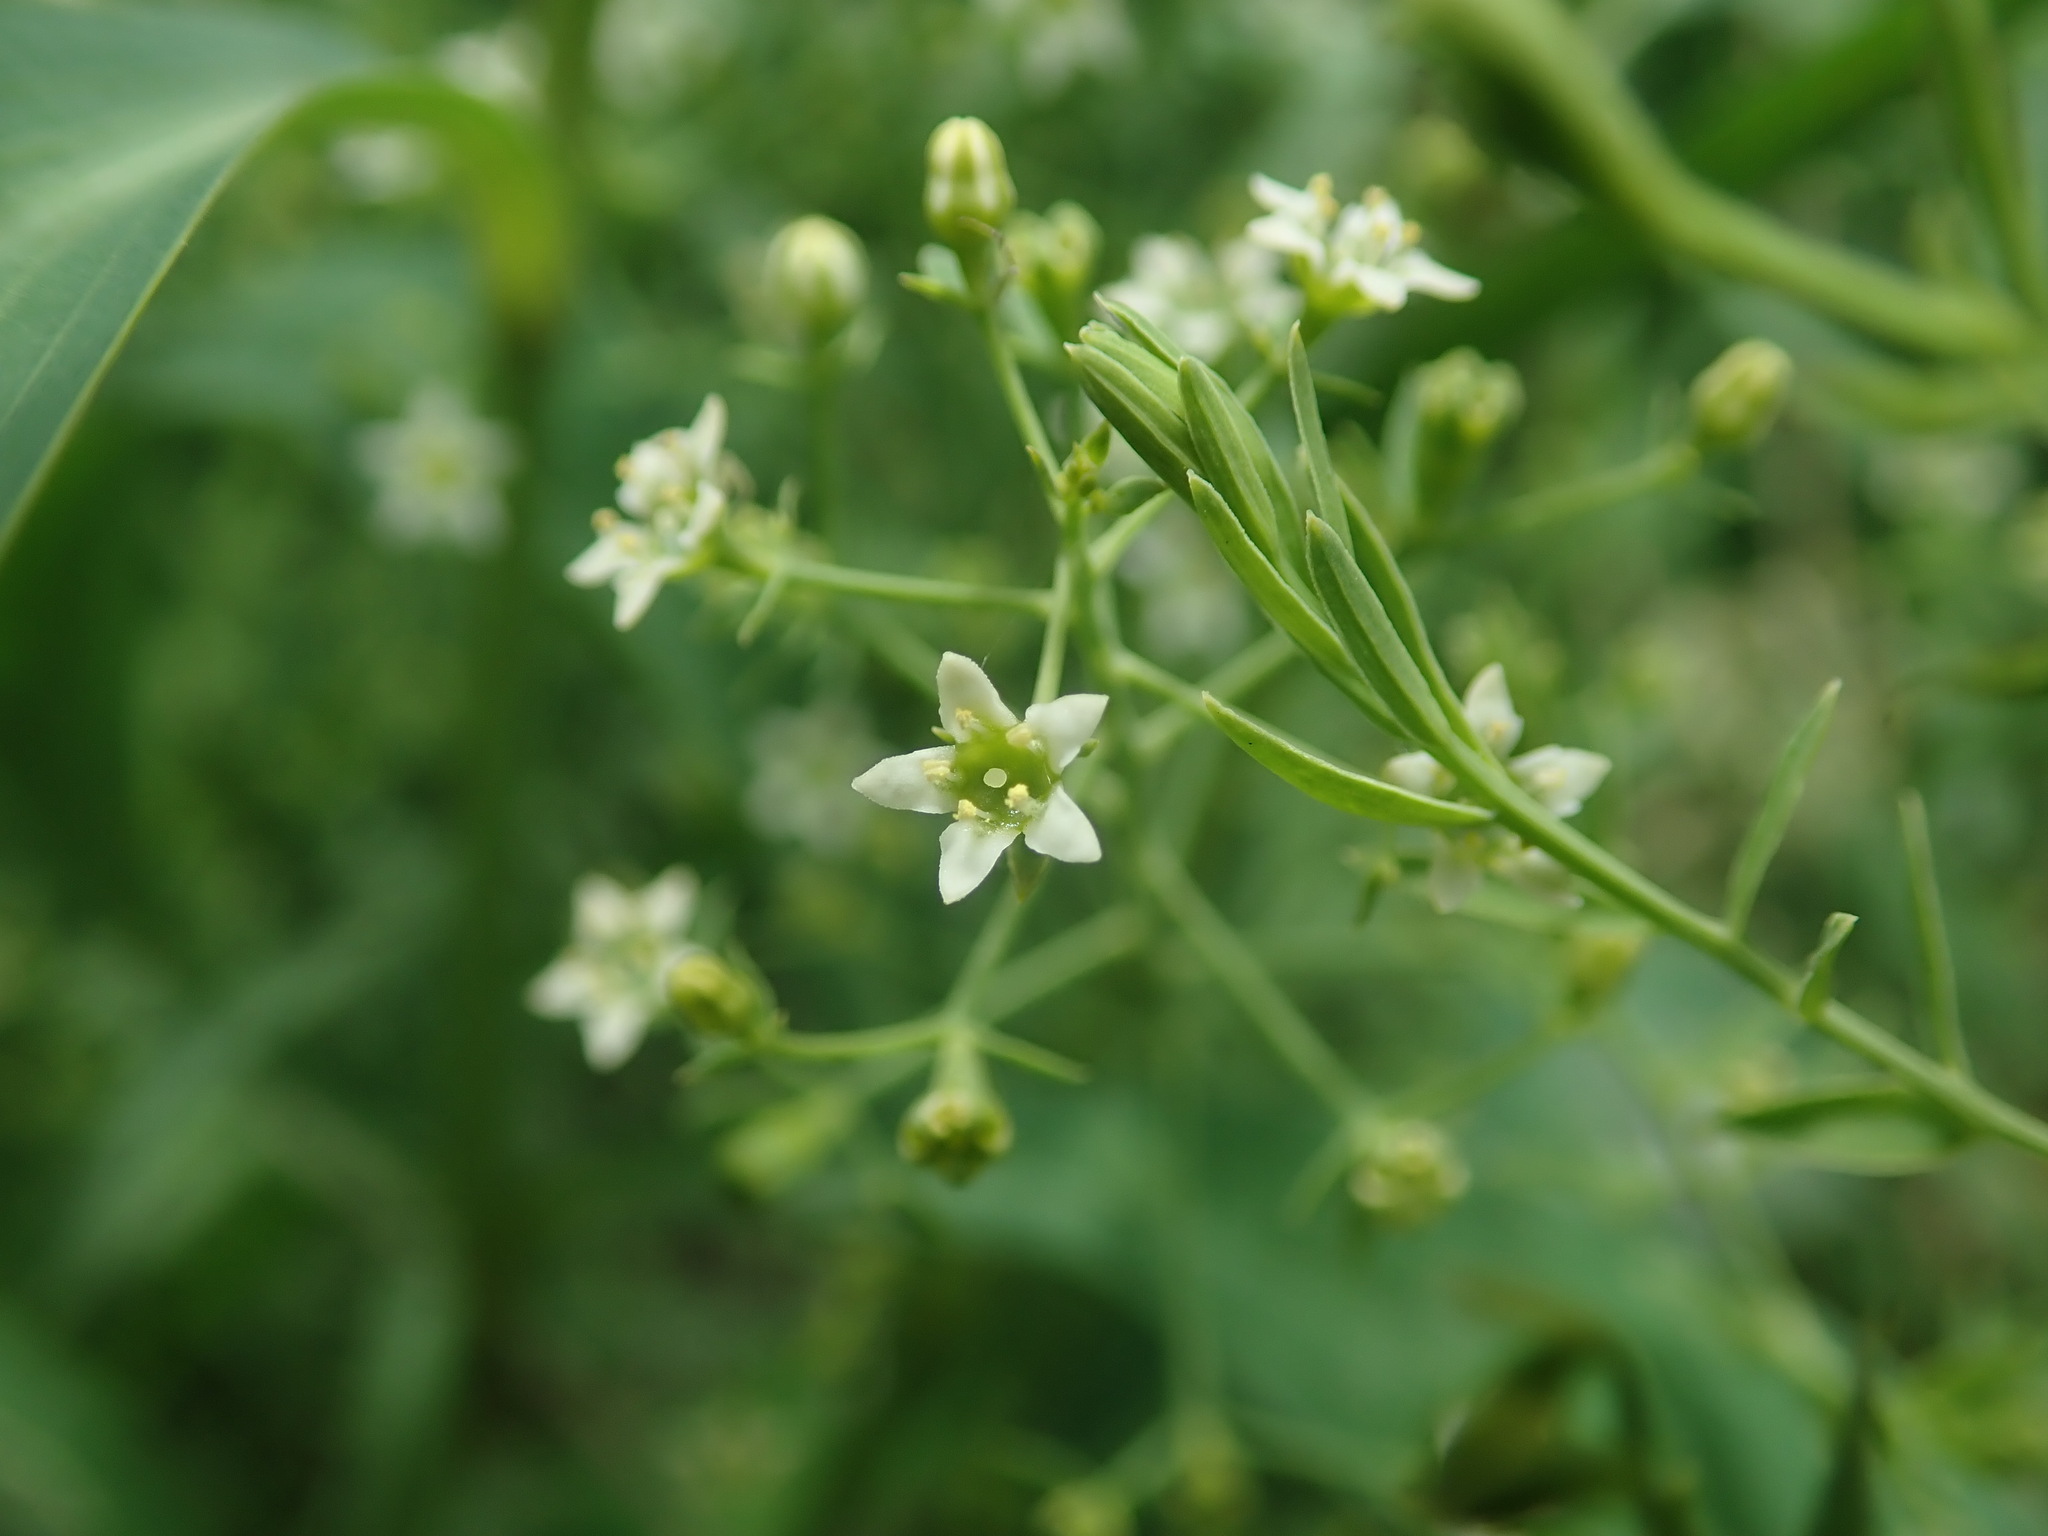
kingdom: Plantae
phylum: Tracheophyta
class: Magnoliopsida
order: Santalales
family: Thesiaceae
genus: Thesium
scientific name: Thesium linophyllon
